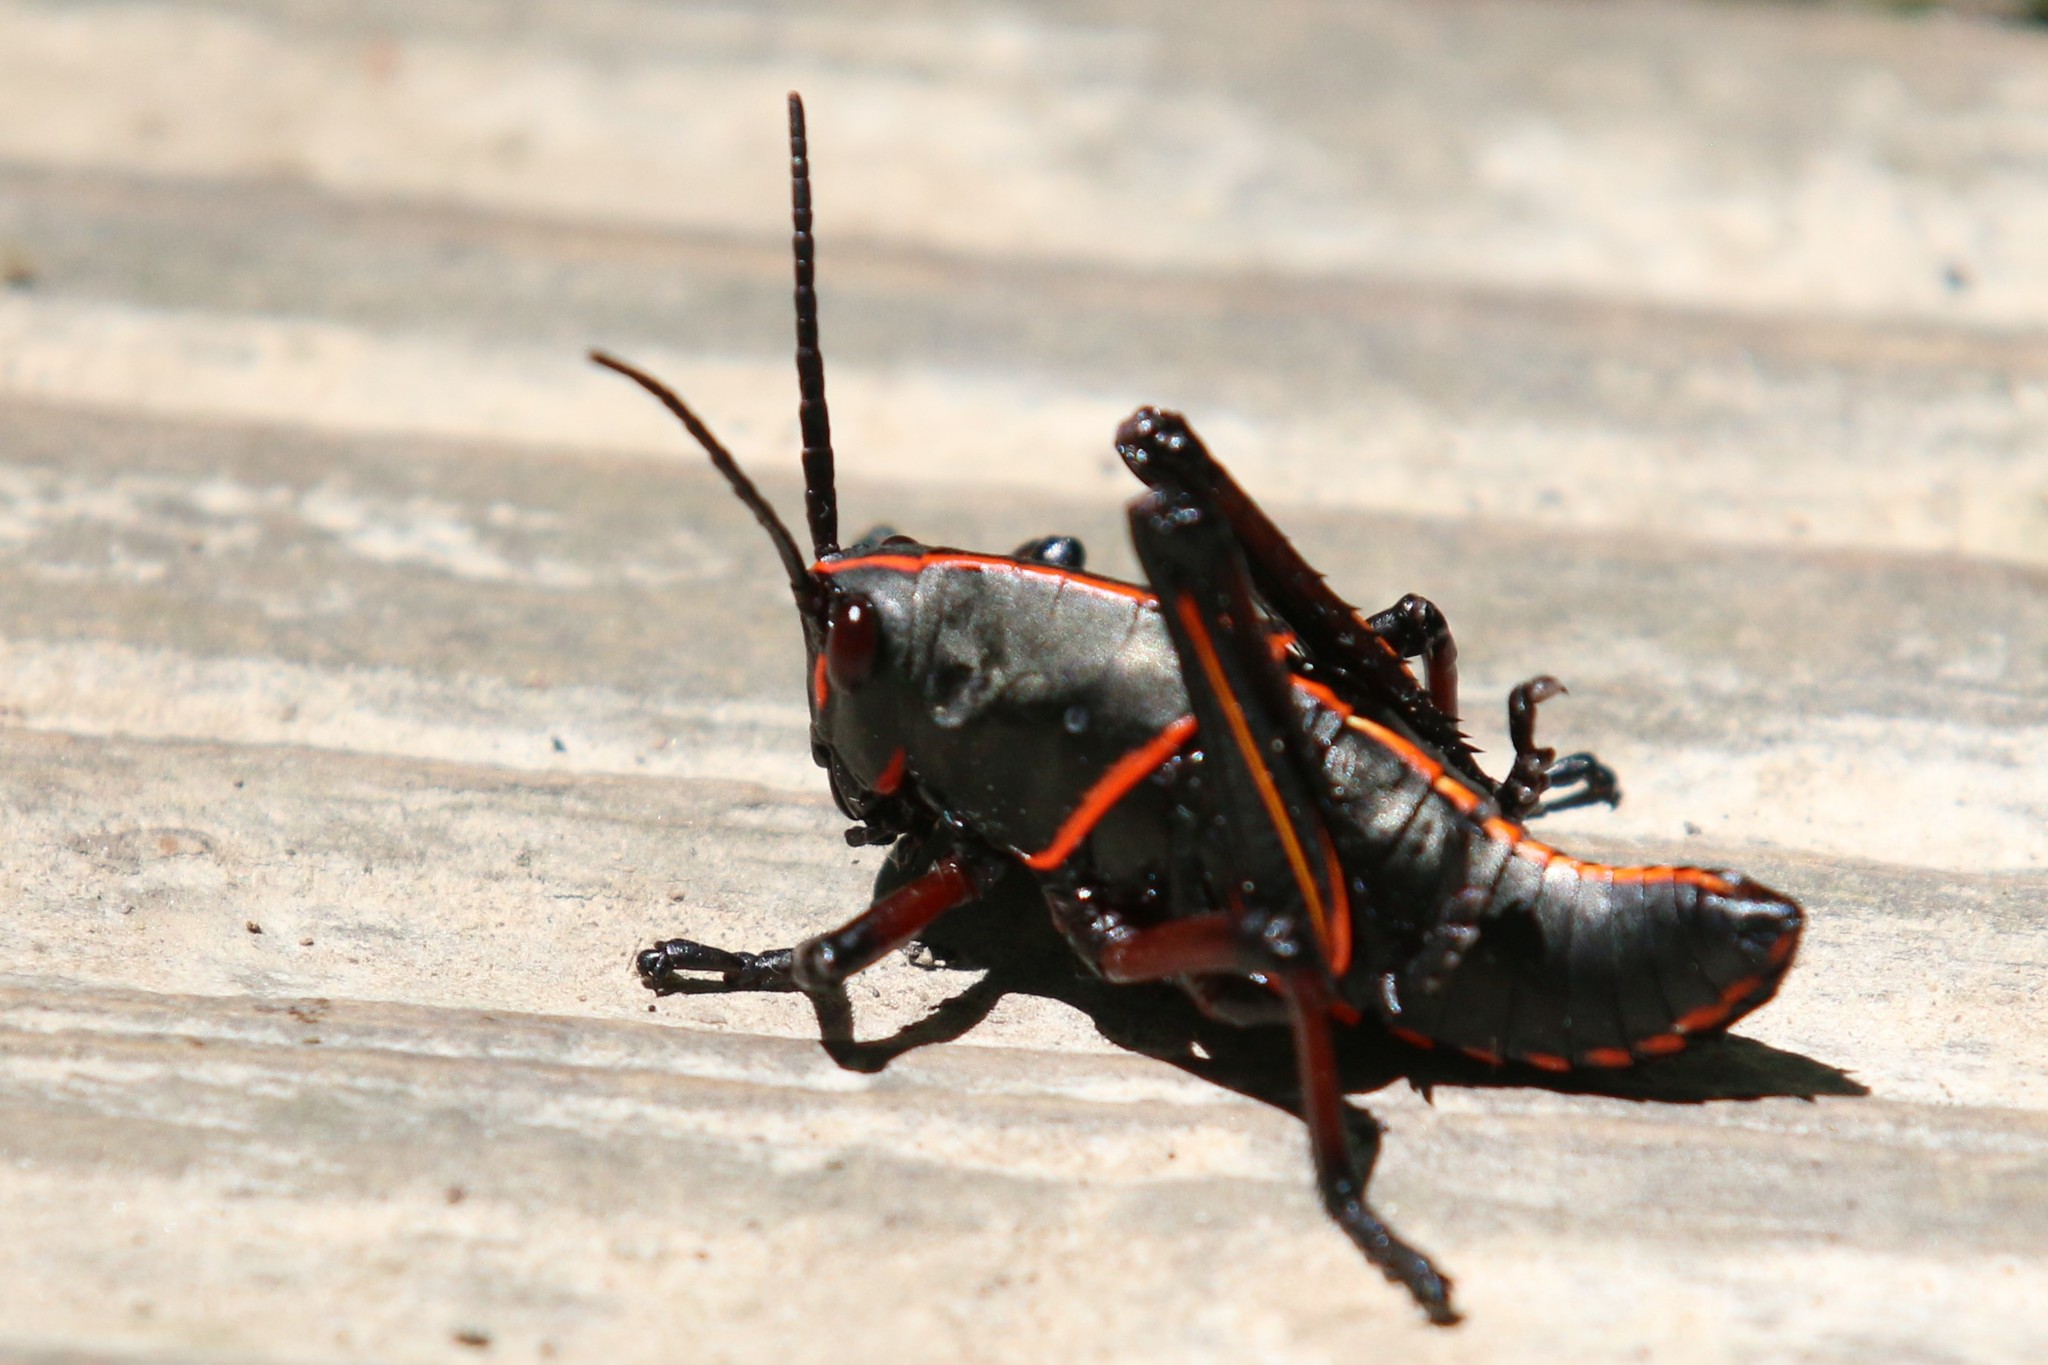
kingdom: Animalia
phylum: Arthropoda
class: Insecta
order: Orthoptera
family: Romaleidae
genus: Romalea
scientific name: Romalea microptera
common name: Eastern lubber grasshopper
